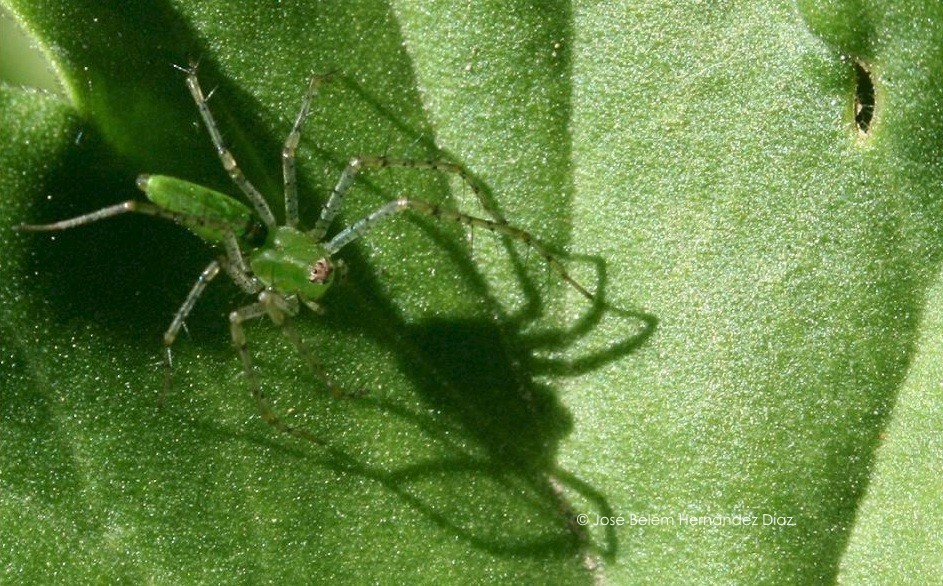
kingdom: Animalia
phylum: Arthropoda
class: Arachnida
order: Araneae
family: Oxyopidae
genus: Peucetia
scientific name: Peucetia viridans
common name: Lynx spiders
